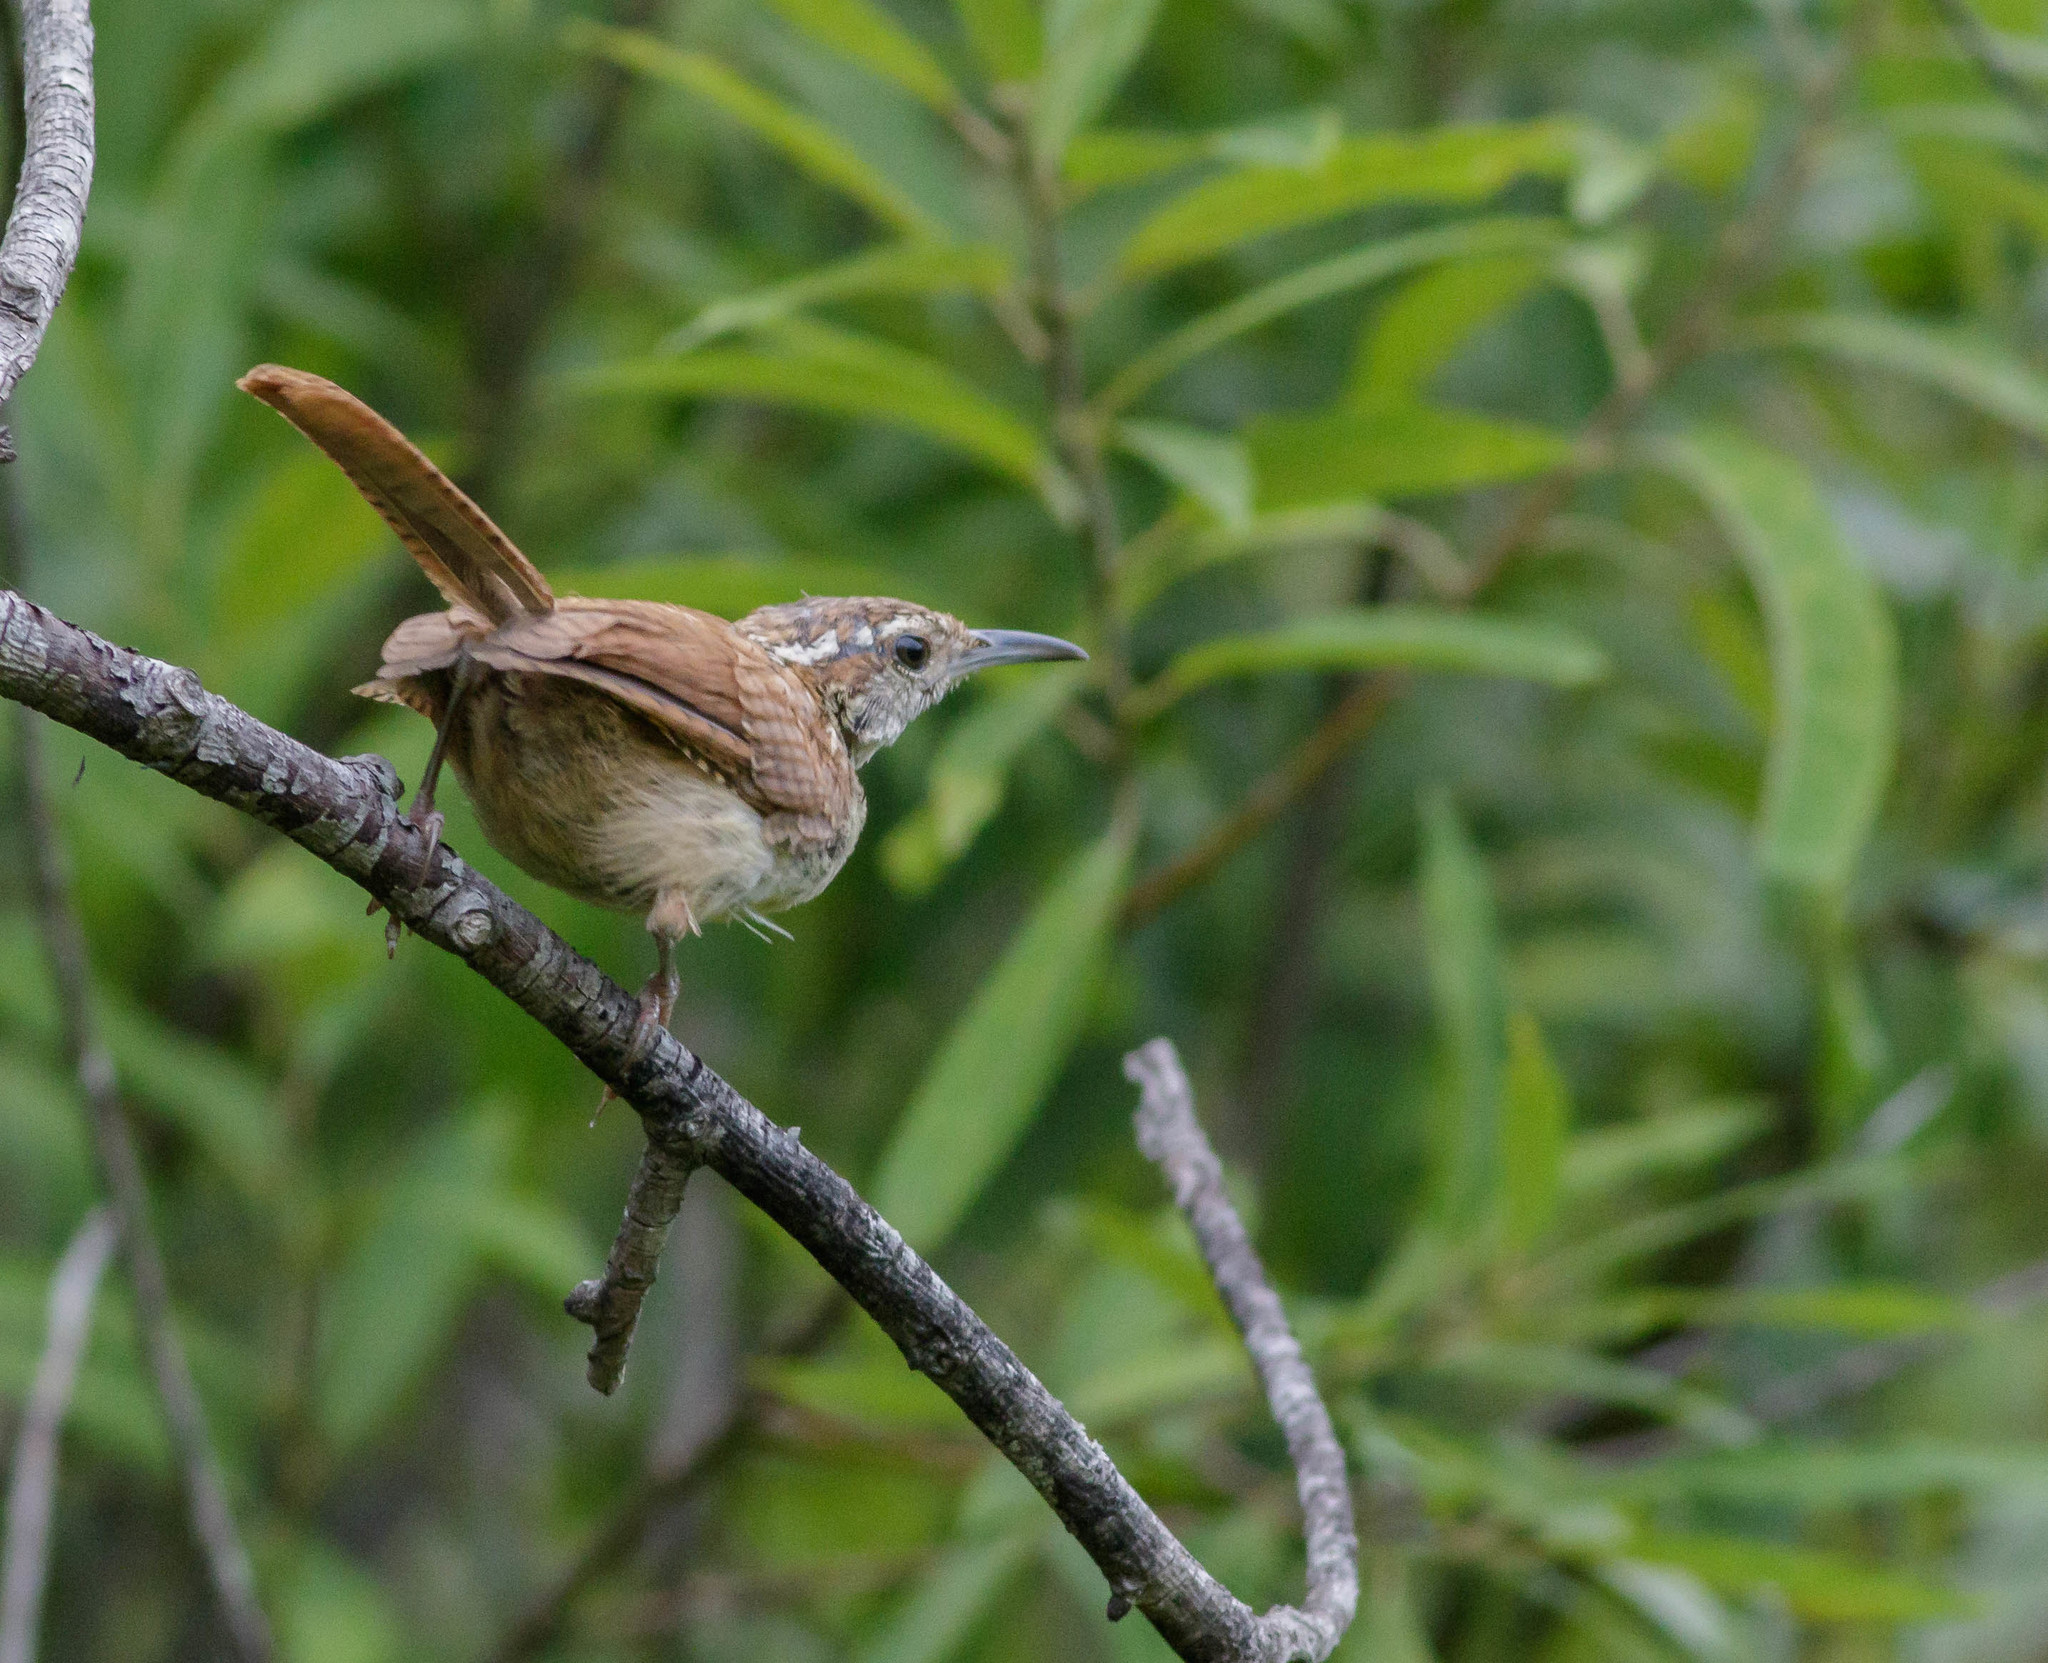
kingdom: Animalia
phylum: Chordata
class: Aves
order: Passeriformes
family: Troglodytidae
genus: Thryothorus
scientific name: Thryothorus ludovicianus
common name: Carolina wren
